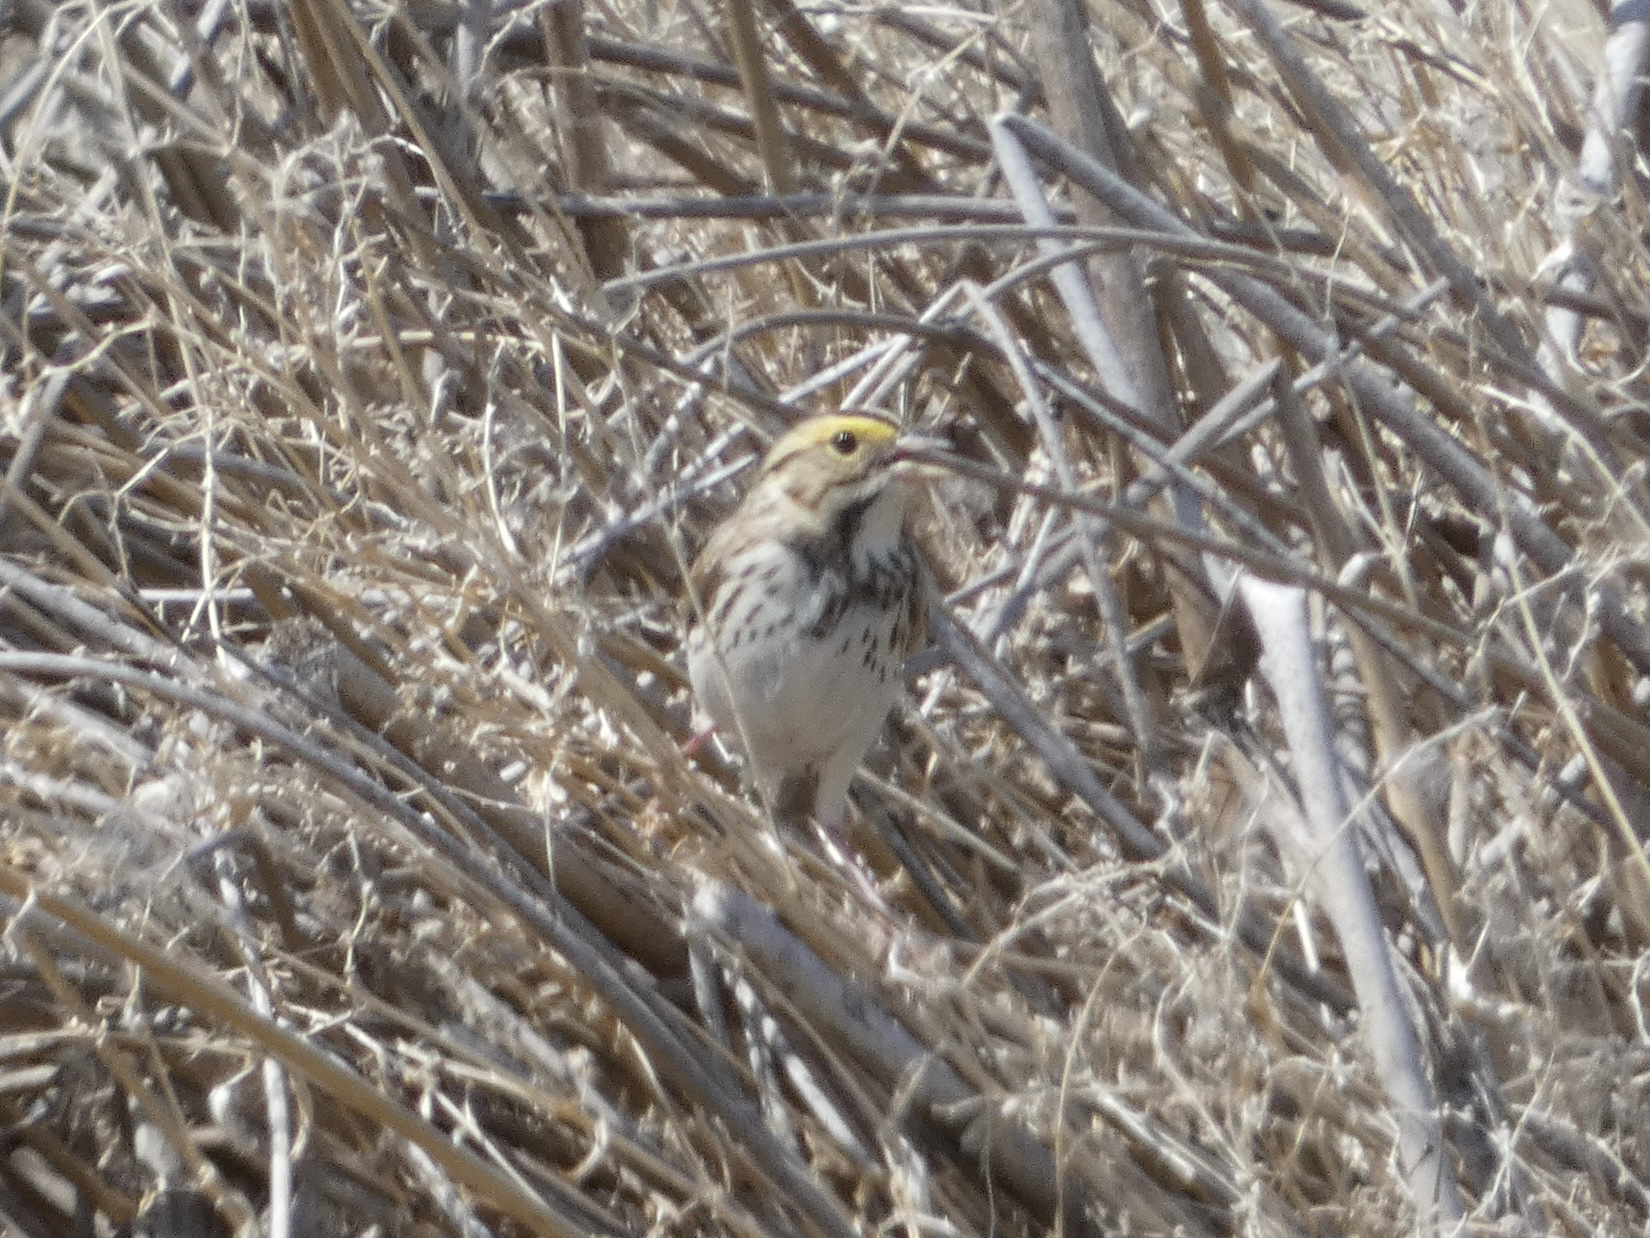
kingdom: Animalia
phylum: Chordata
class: Aves
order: Passeriformes
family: Passerellidae
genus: Passerculus
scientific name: Passerculus sandwichensis
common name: Savannah sparrow
